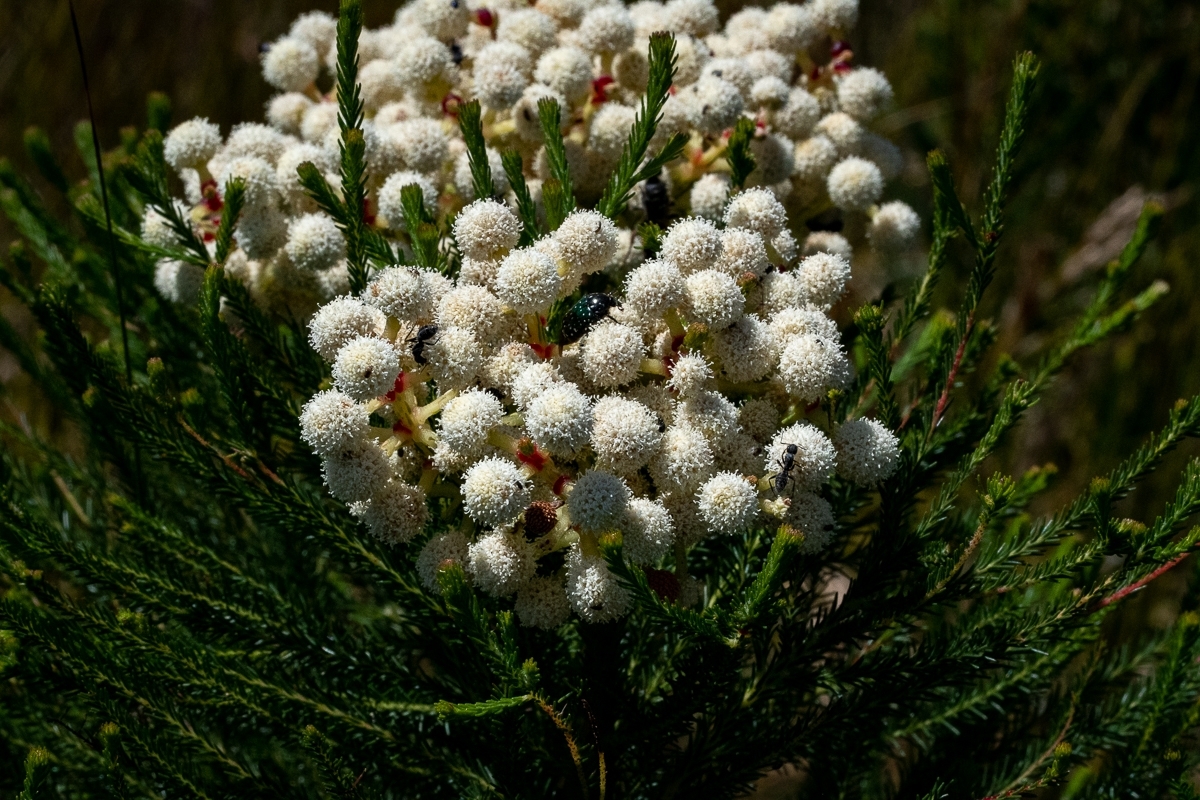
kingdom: Plantae
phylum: Tracheophyta
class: Magnoliopsida
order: Bruniales
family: Bruniaceae
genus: Berzelia
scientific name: Berzelia lanuginosa
